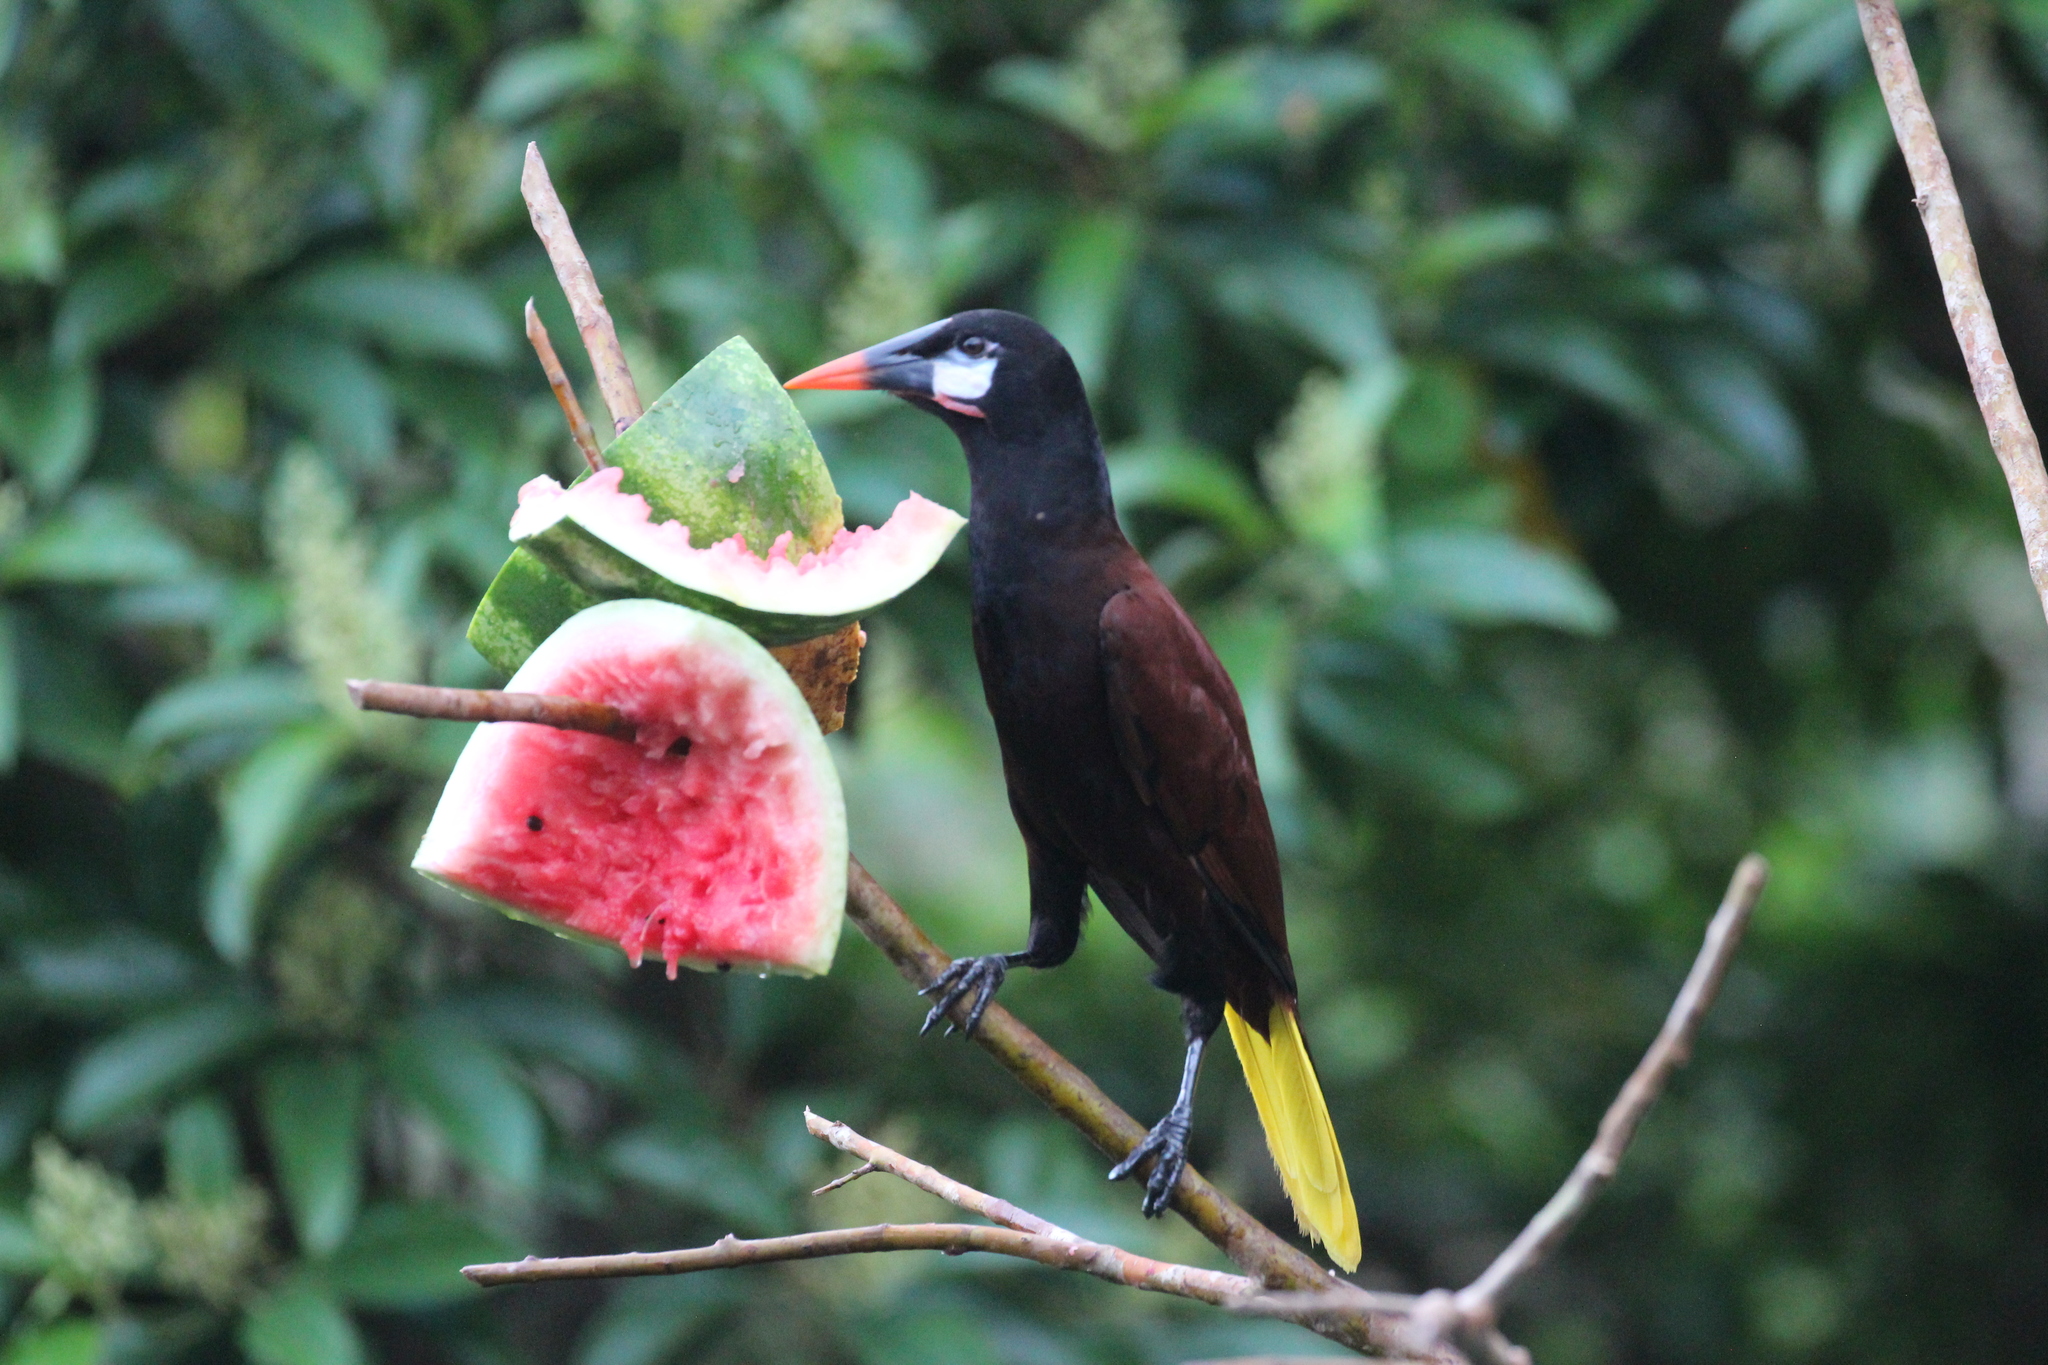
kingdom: Animalia
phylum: Chordata
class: Aves
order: Passeriformes
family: Icteridae
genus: Psarocolius
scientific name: Psarocolius montezuma
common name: Montezuma oropendola
